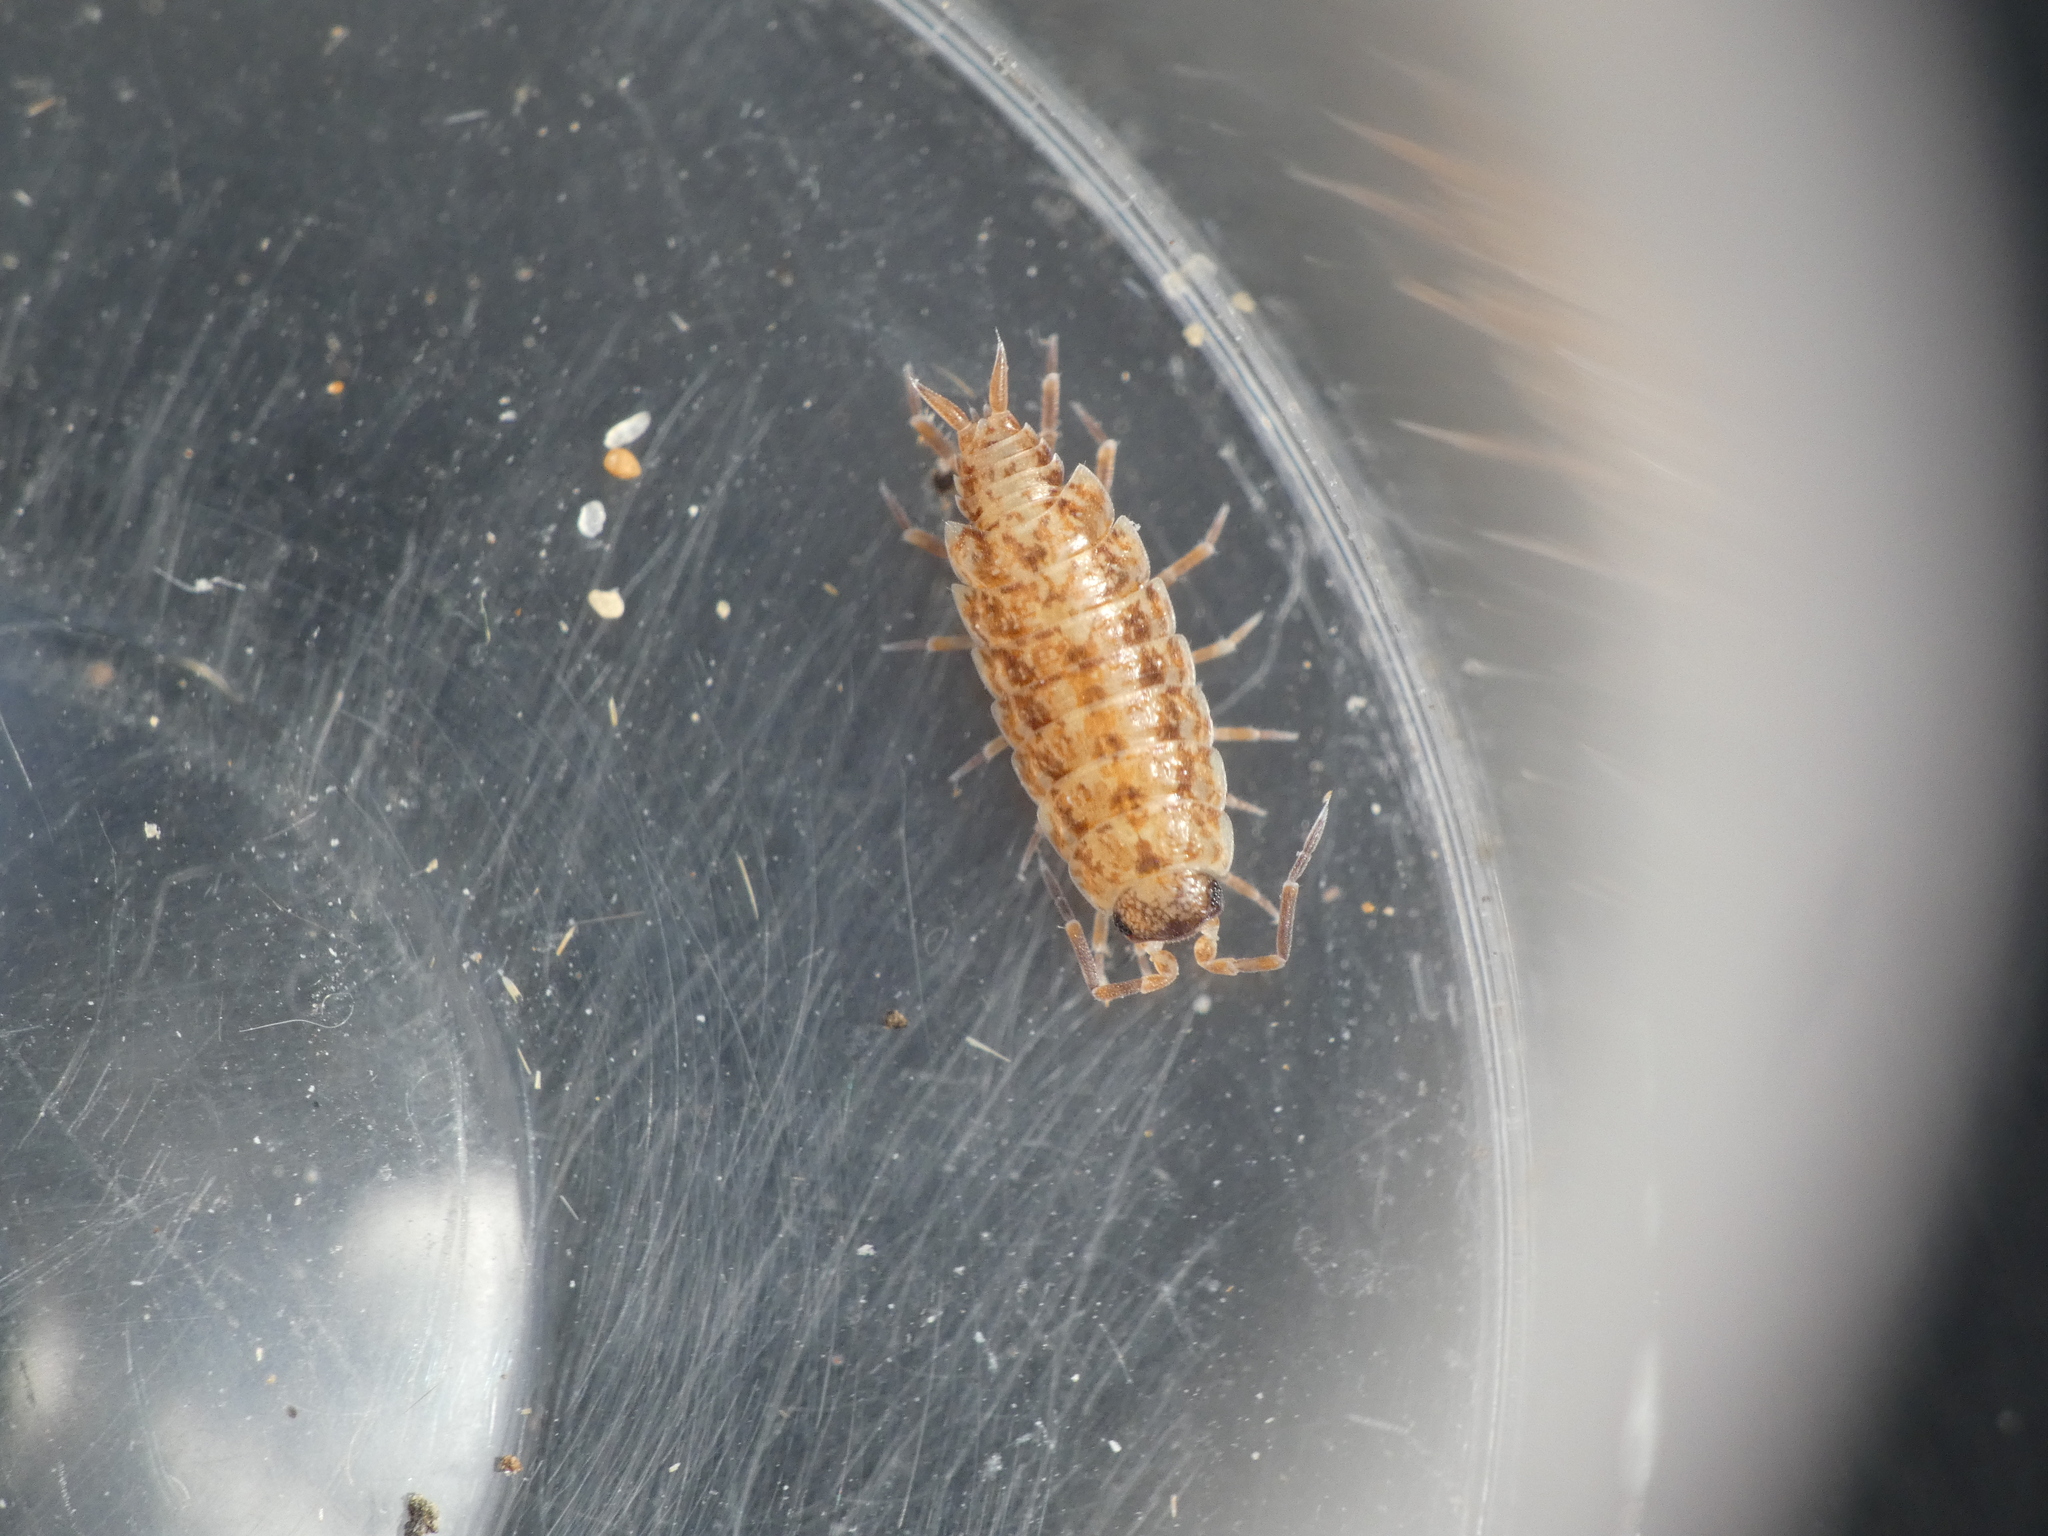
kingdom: Animalia
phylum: Arthropoda
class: Malacostraca
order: Isopoda
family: Porcellionidae
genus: Porcellionides
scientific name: Porcellionides cingendus
